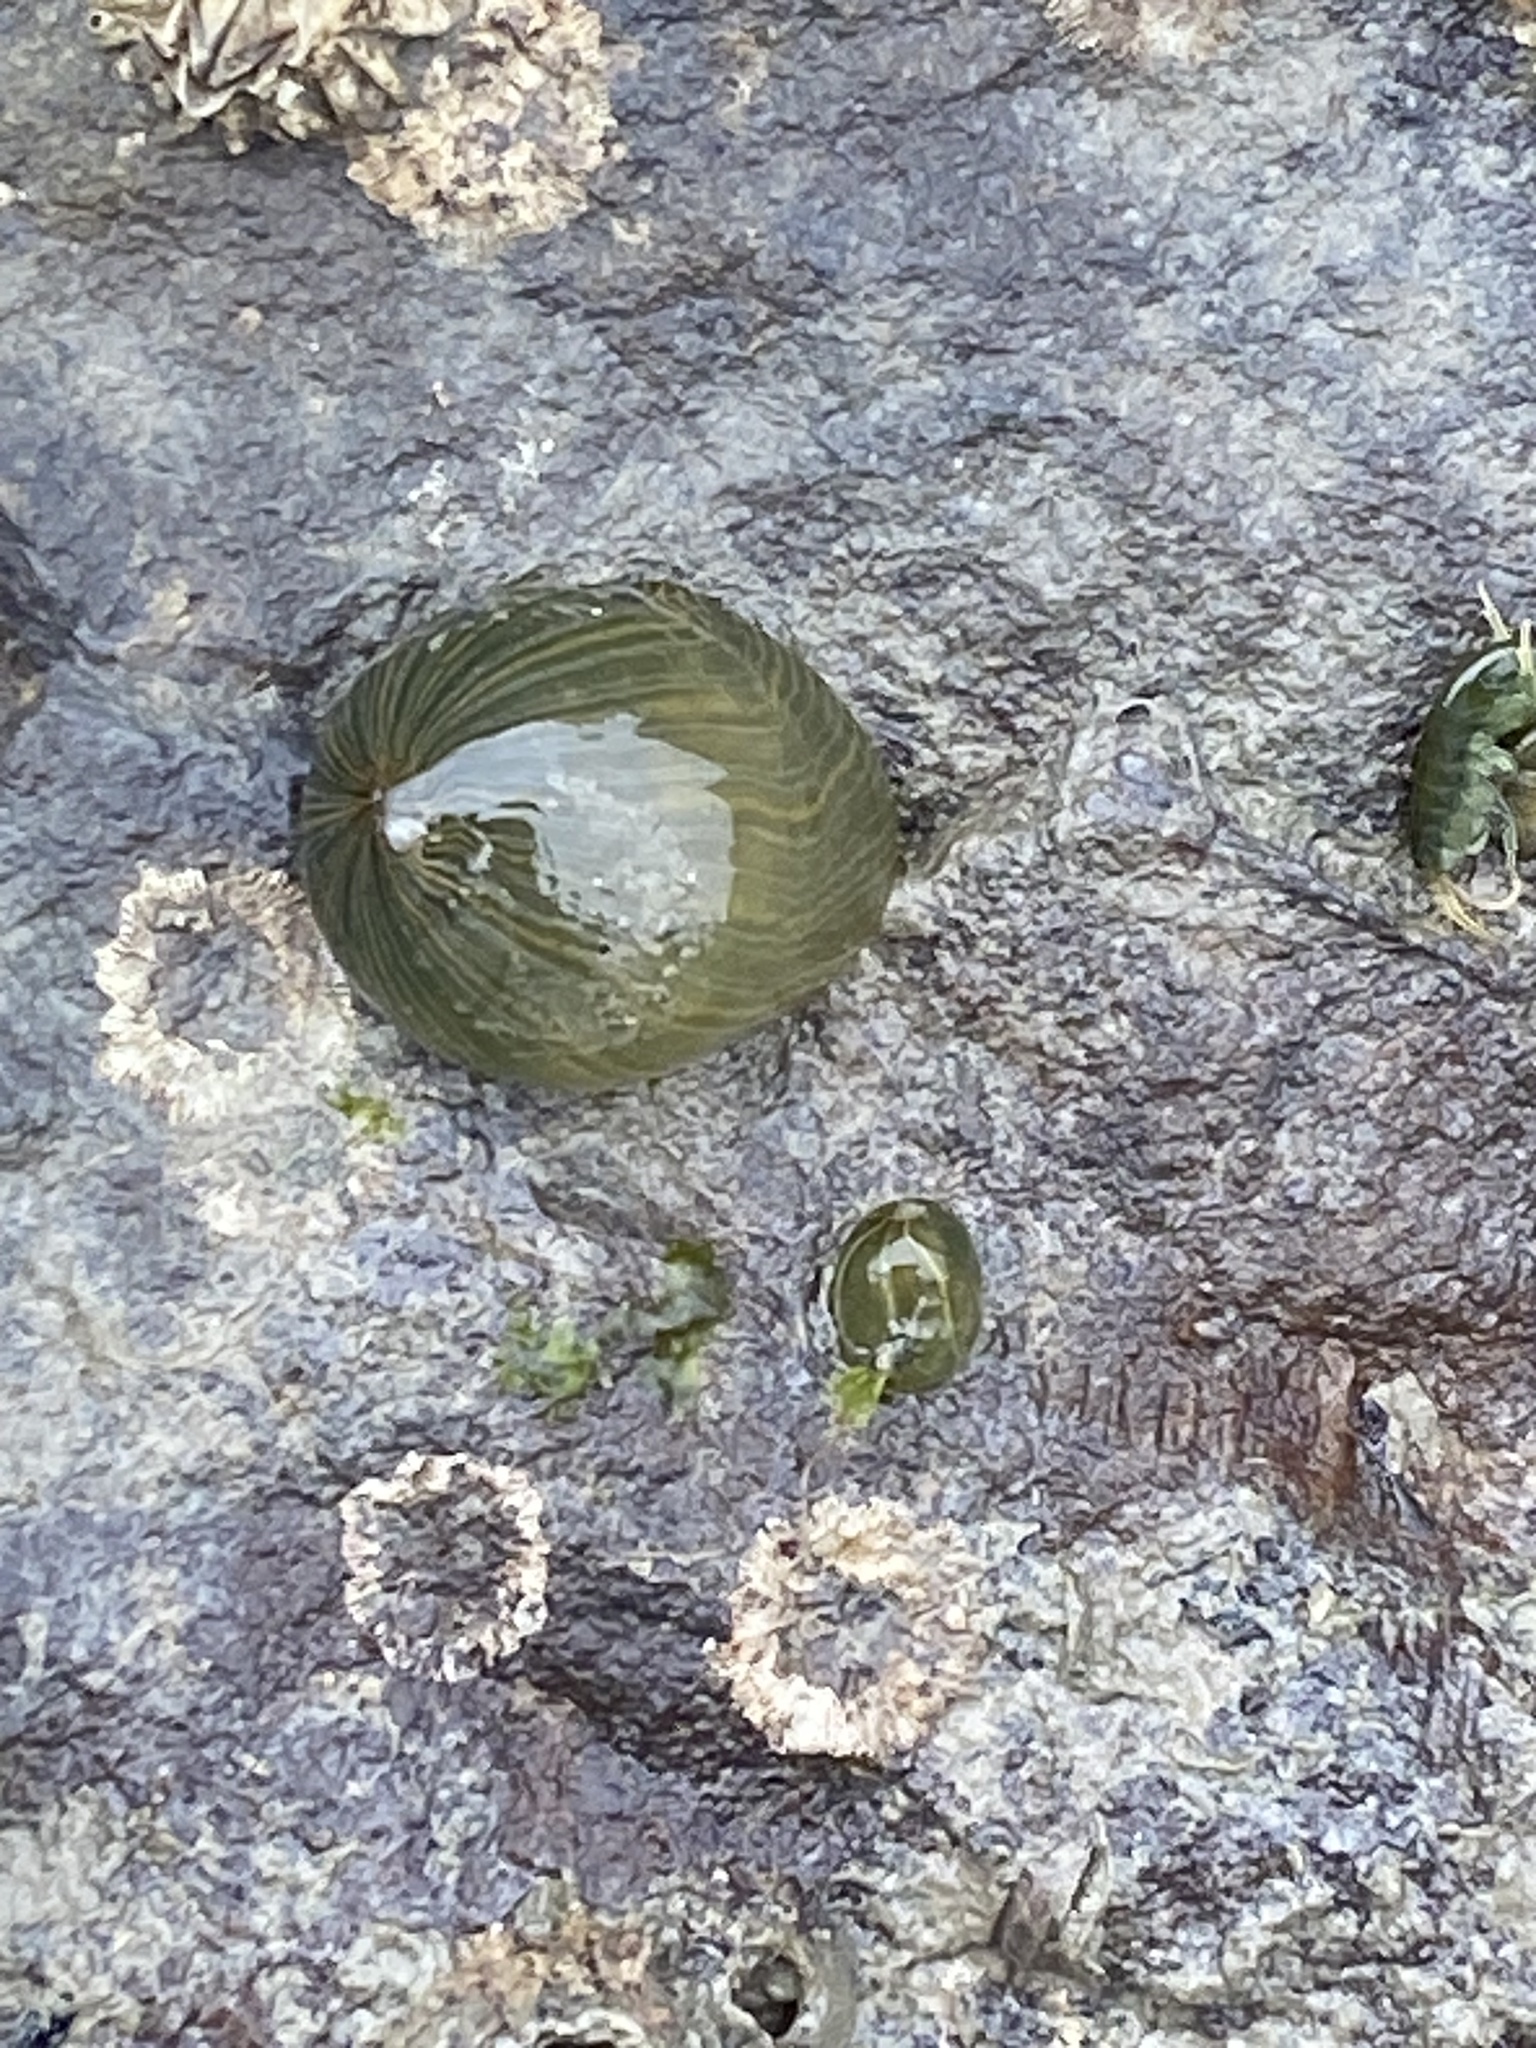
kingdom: Animalia
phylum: Cnidaria
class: Anthozoa
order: Actiniaria
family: Diadumenidae
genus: Diadumene
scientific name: Diadumene lineata
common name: Orange-striped anemone
